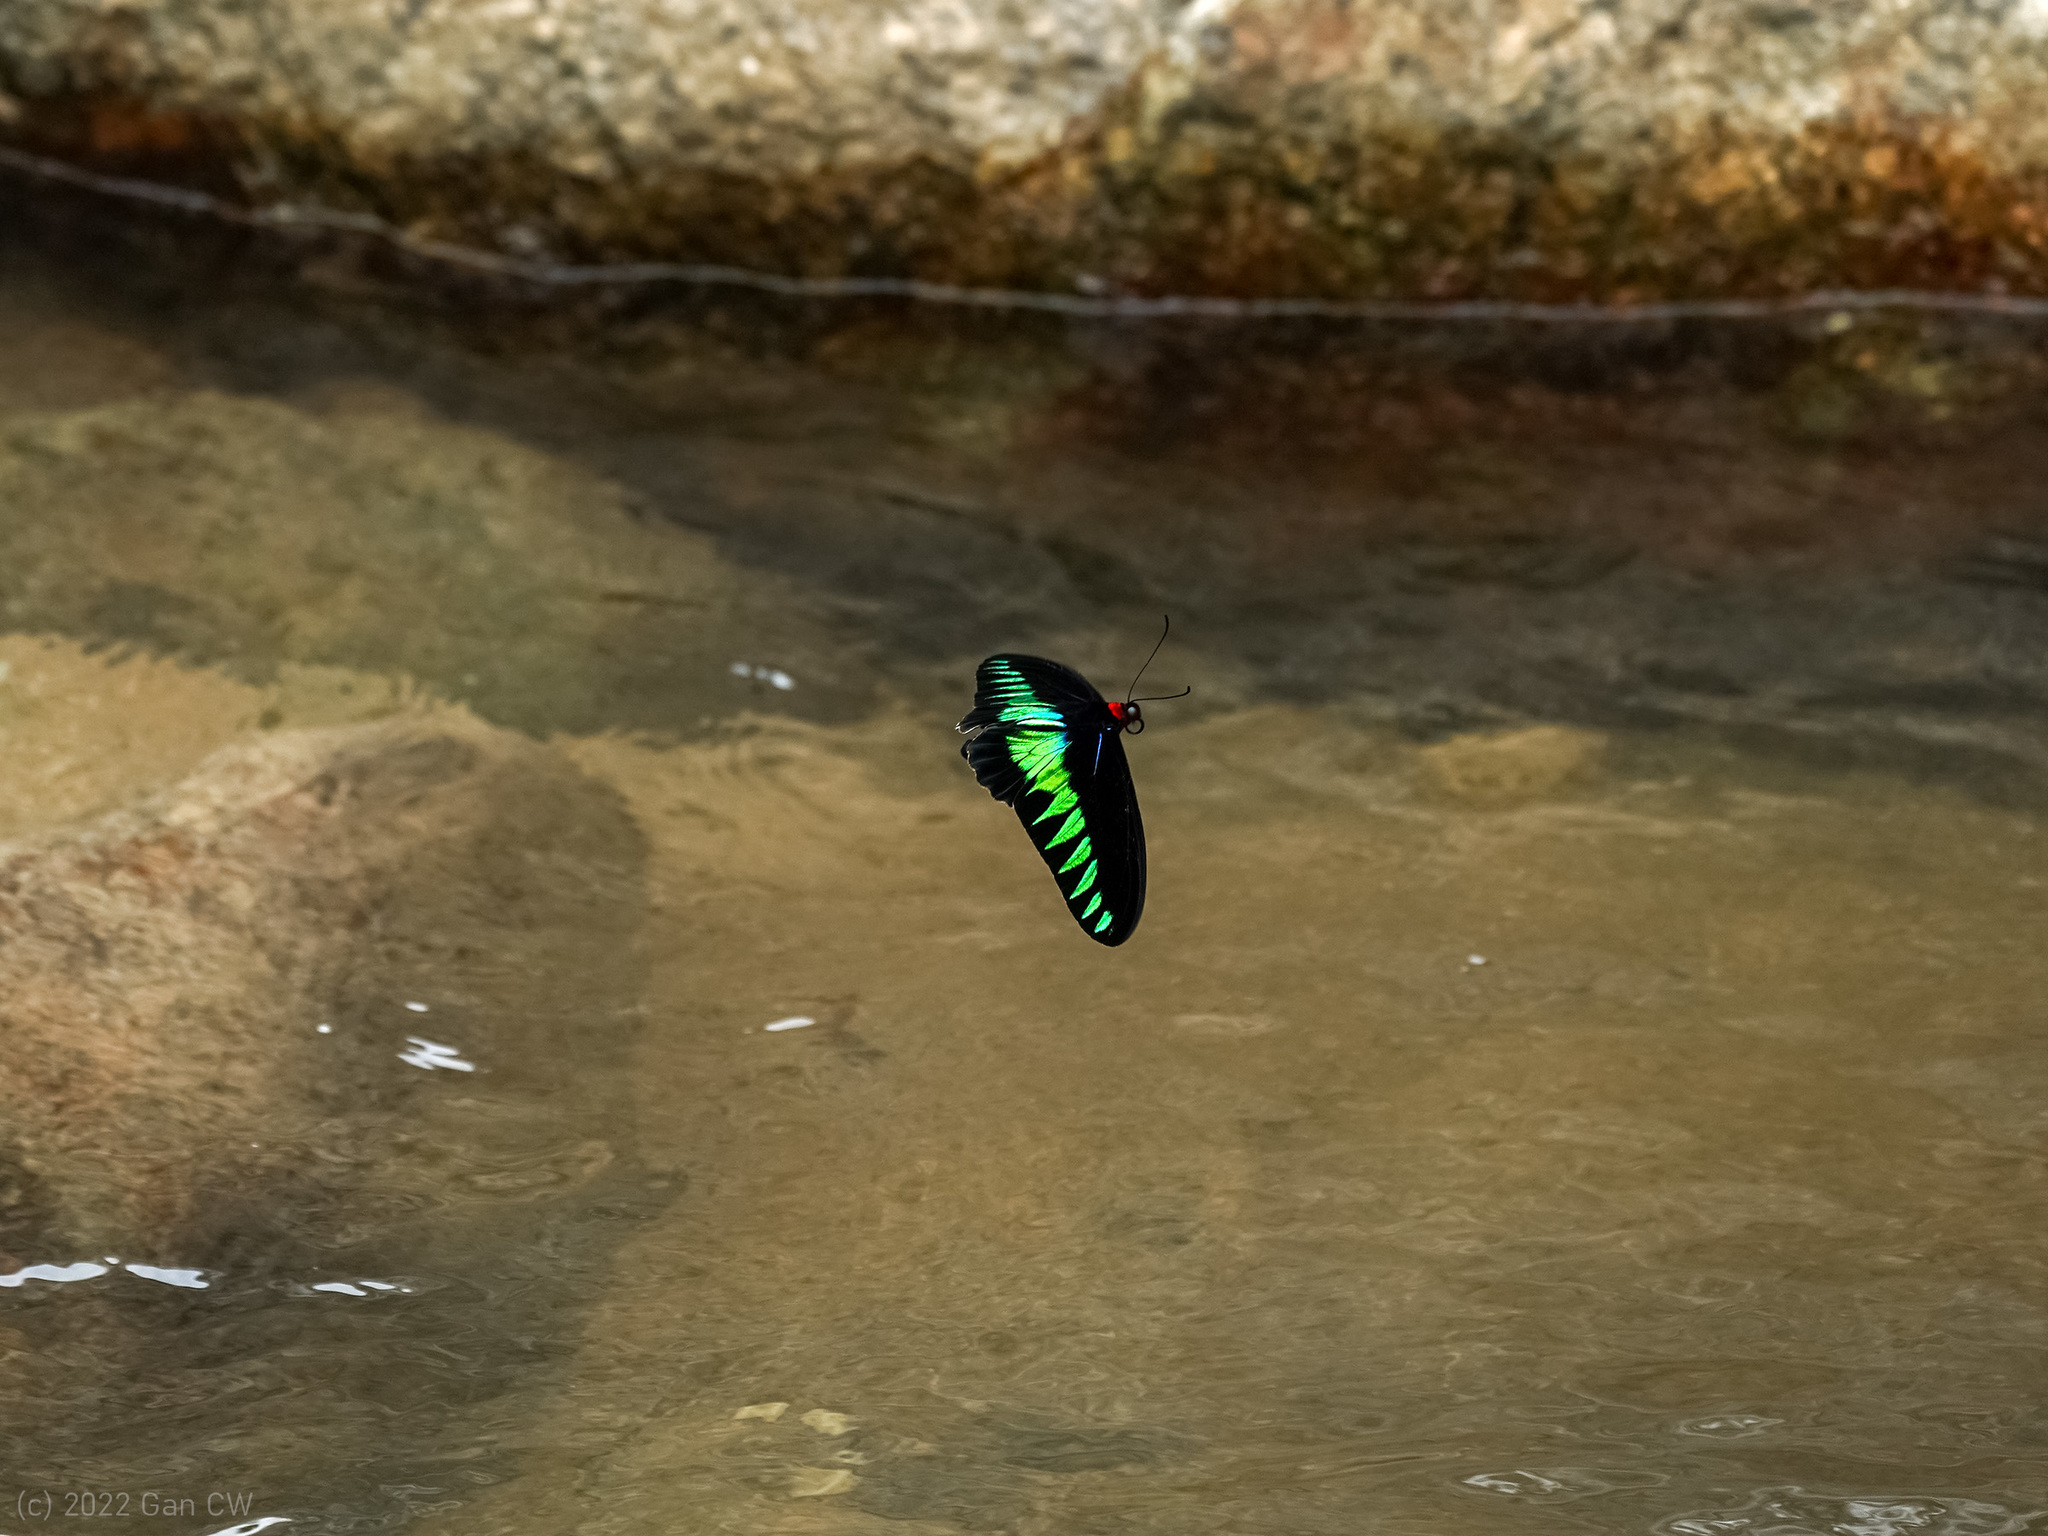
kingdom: Animalia
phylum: Arthropoda
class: Insecta
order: Lepidoptera
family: Papilionidae
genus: Trogonoptera
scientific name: Trogonoptera brookiana
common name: Raja brooke's birdwing
